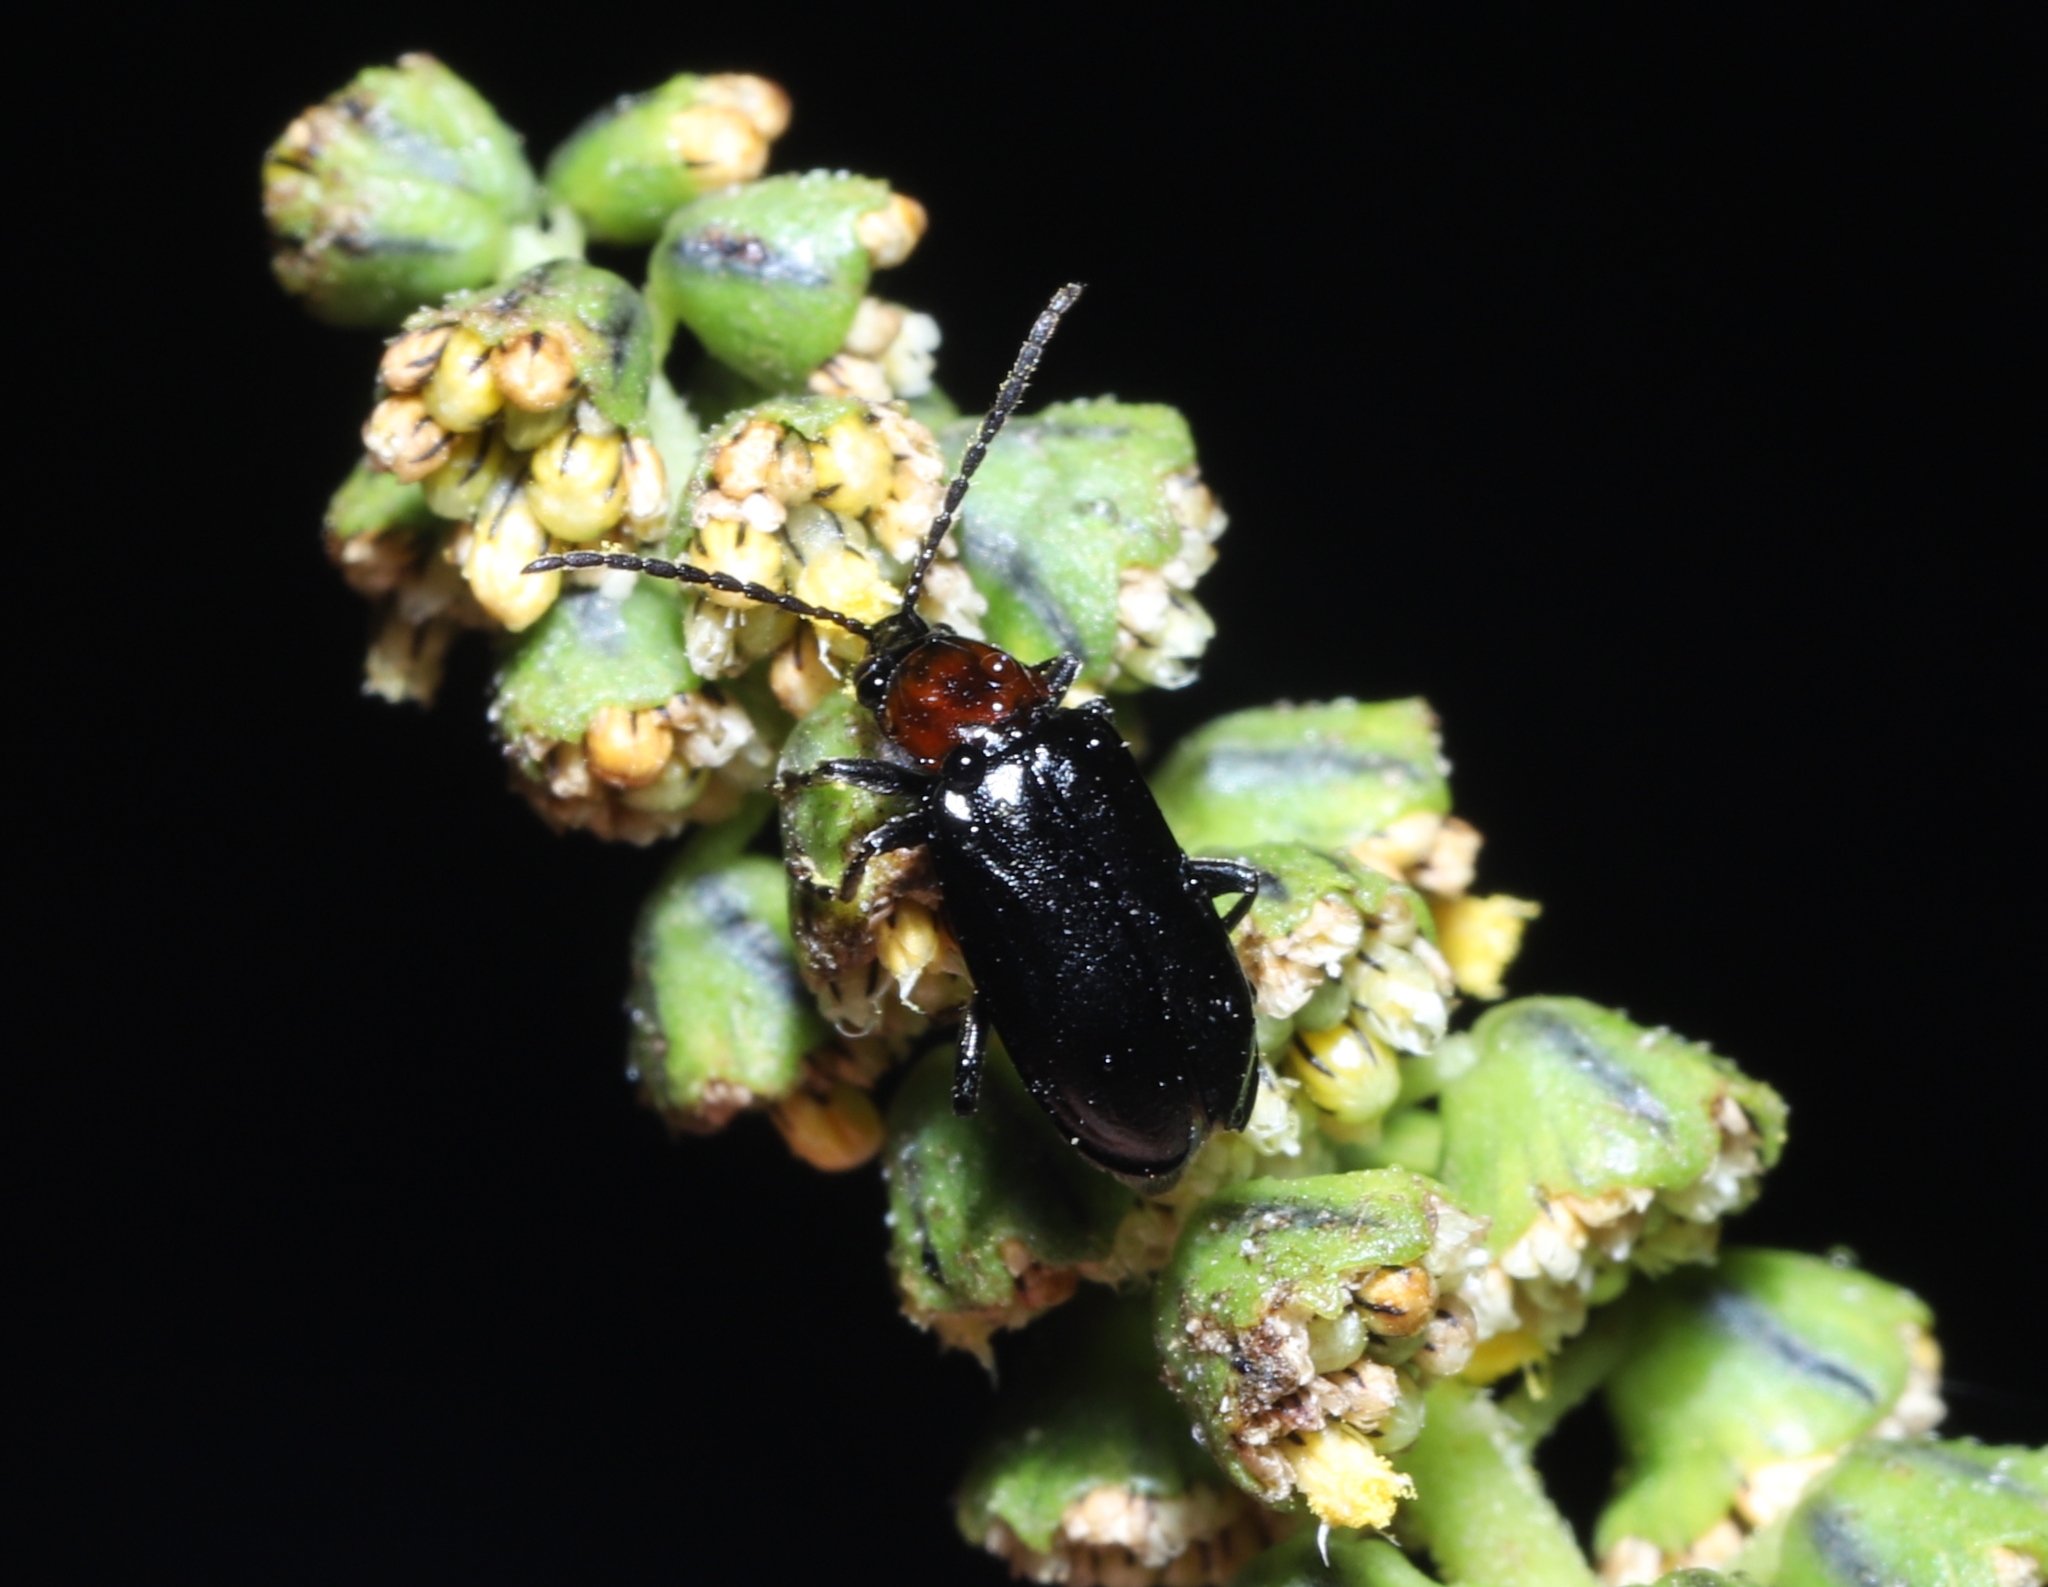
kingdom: Animalia
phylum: Arthropoda
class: Insecta
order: Coleoptera
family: Chrysomelidae
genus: Diabrotica
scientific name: Diabrotica cristata
